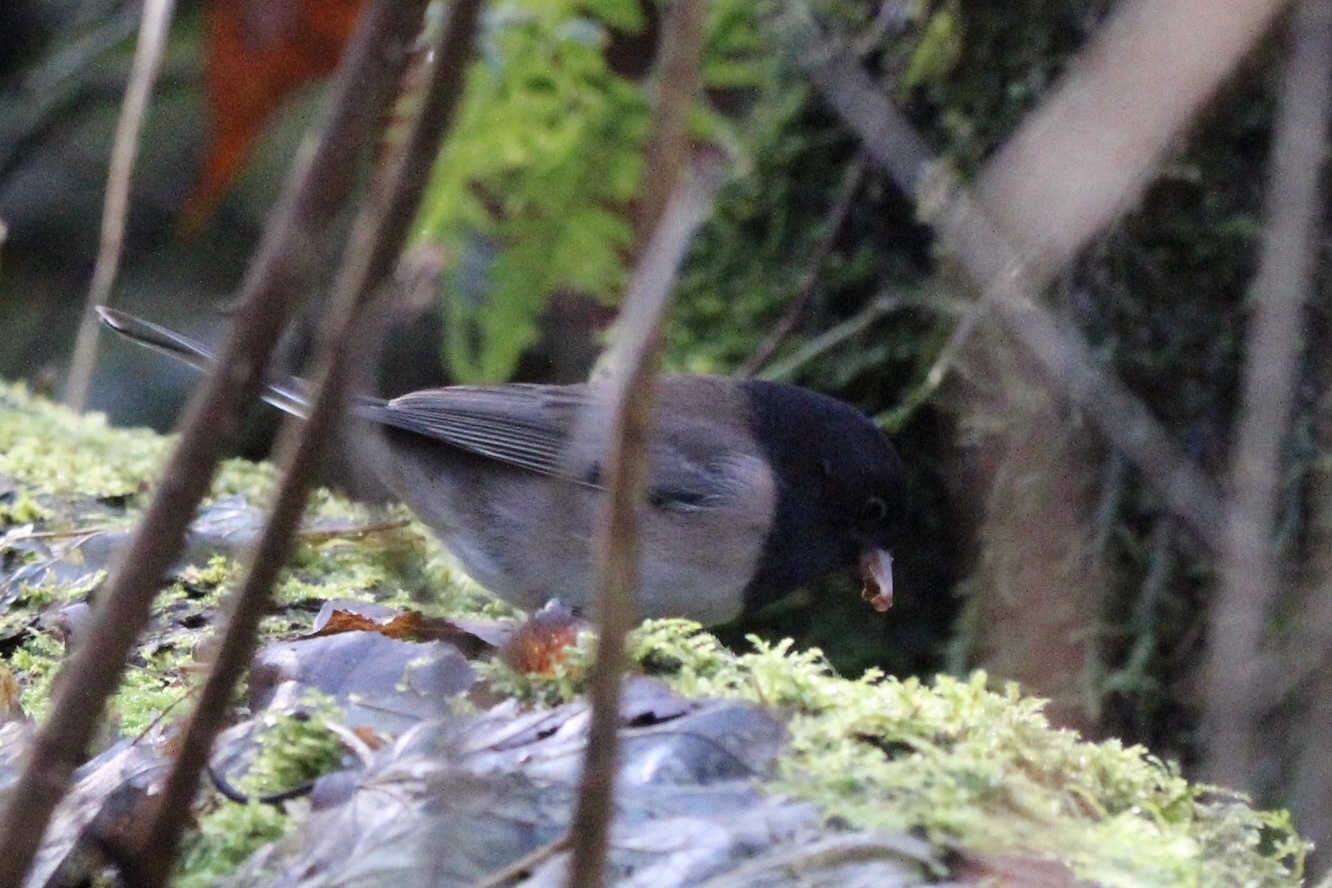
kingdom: Animalia
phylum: Chordata
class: Aves
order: Passeriformes
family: Passerellidae
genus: Junco
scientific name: Junco hyemalis
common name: Dark-eyed junco
